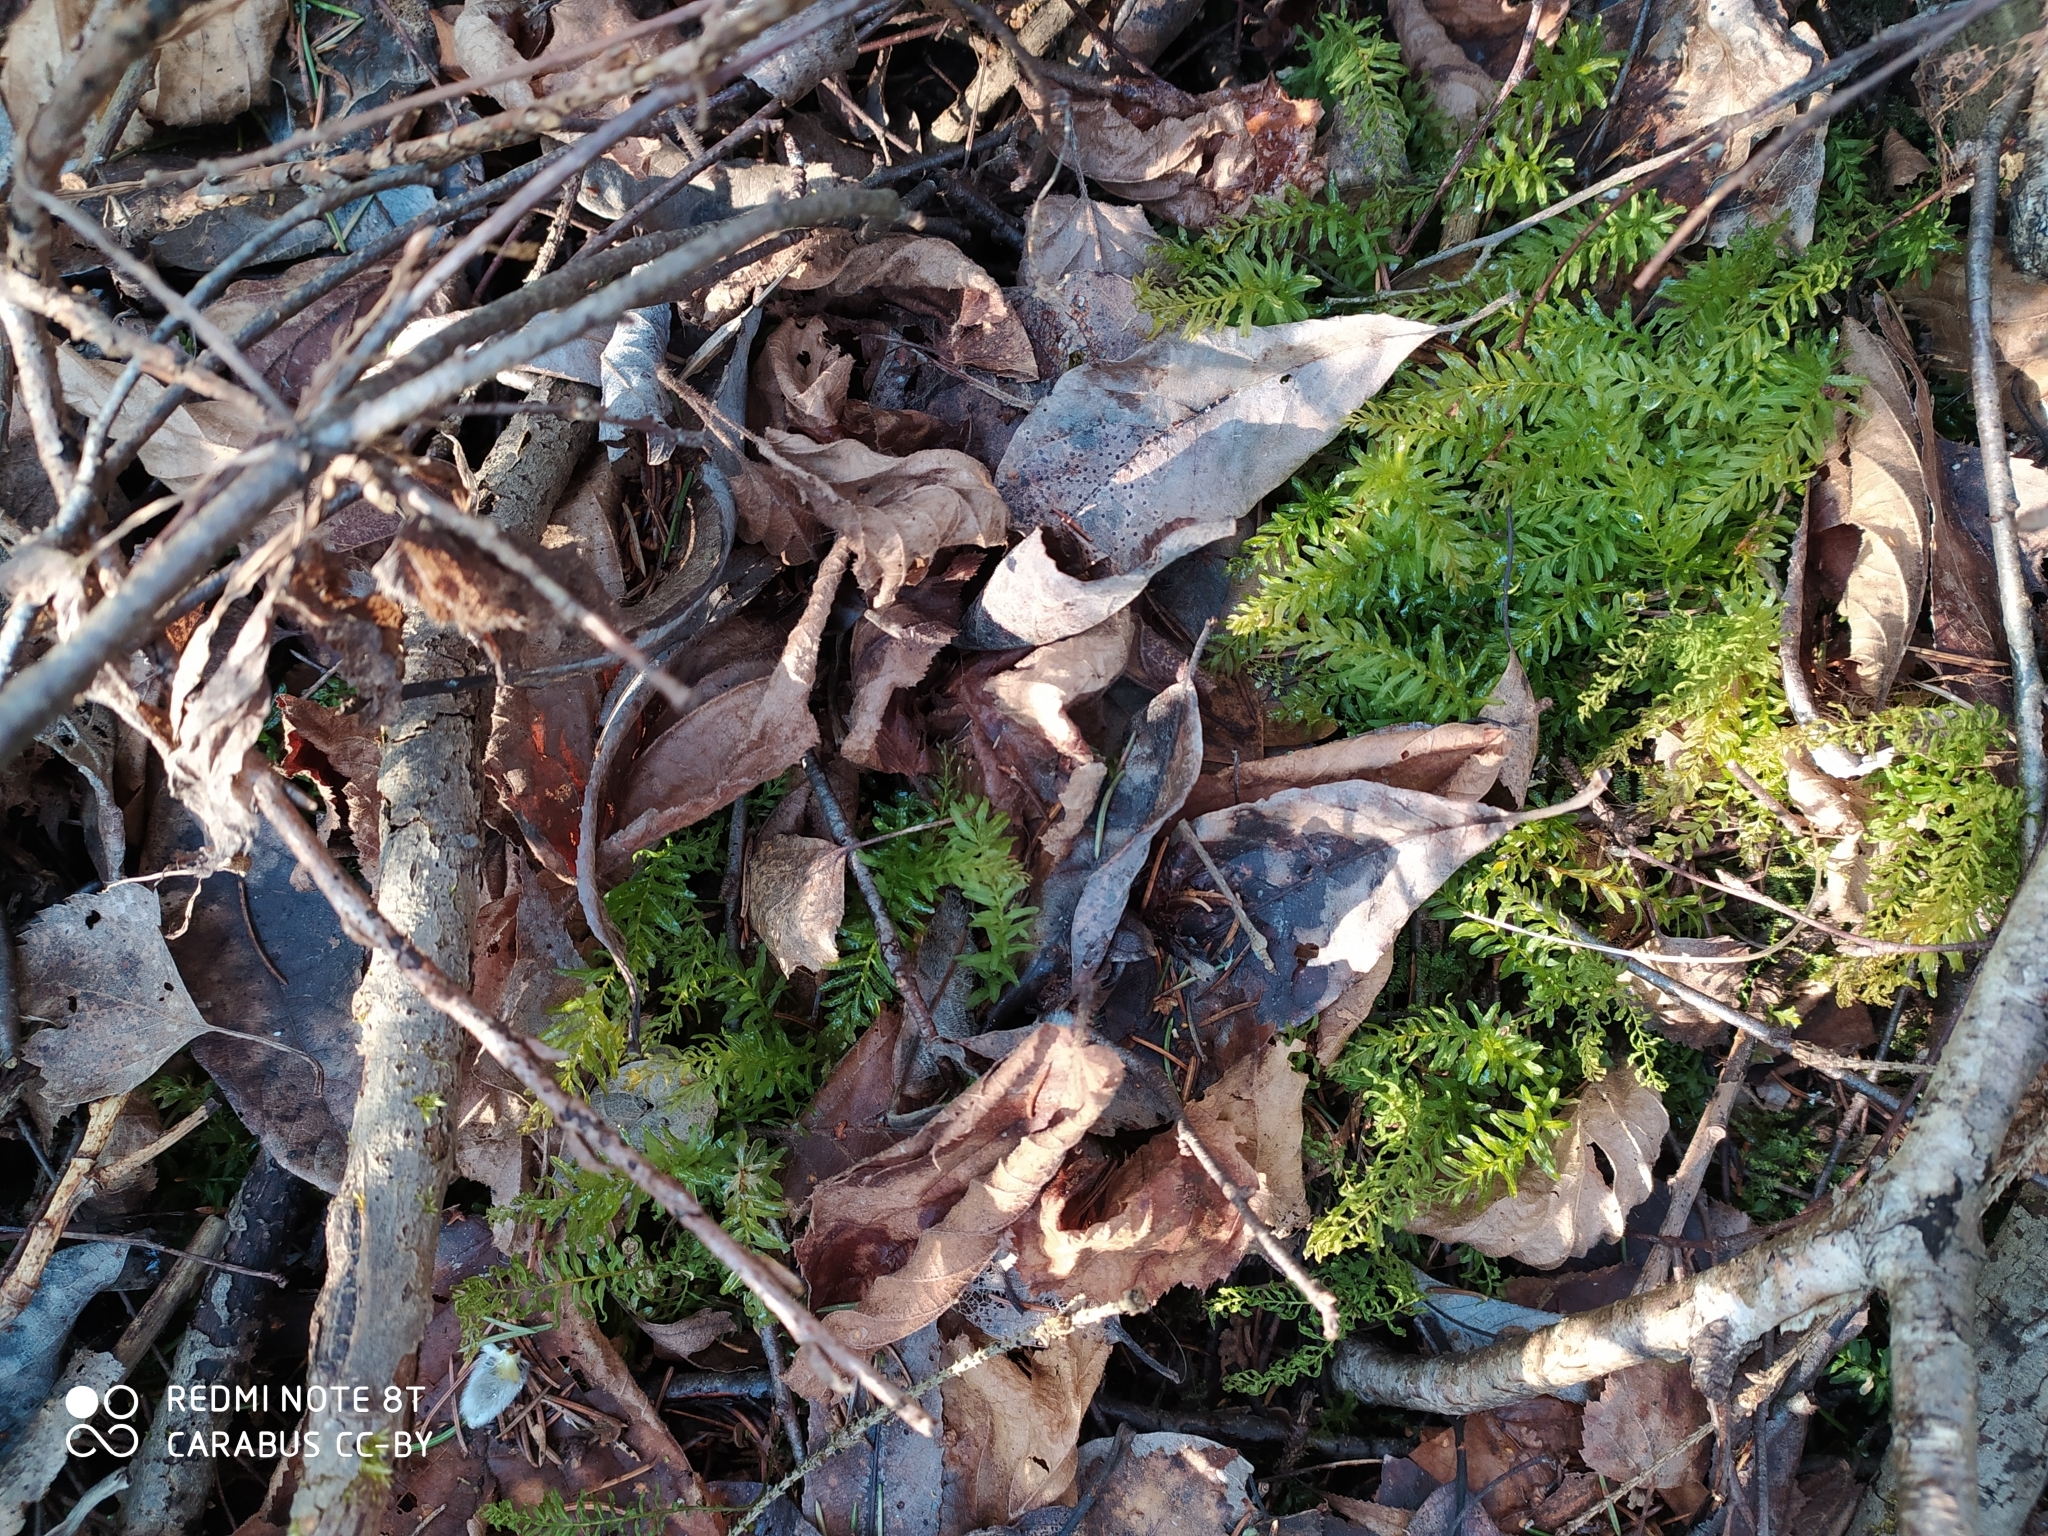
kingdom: Plantae
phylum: Bryophyta
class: Bryopsida
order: Bryales
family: Mniaceae
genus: Plagiomnium
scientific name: Plagiomnium undulatum
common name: Hart's-tongue thyme-moss
